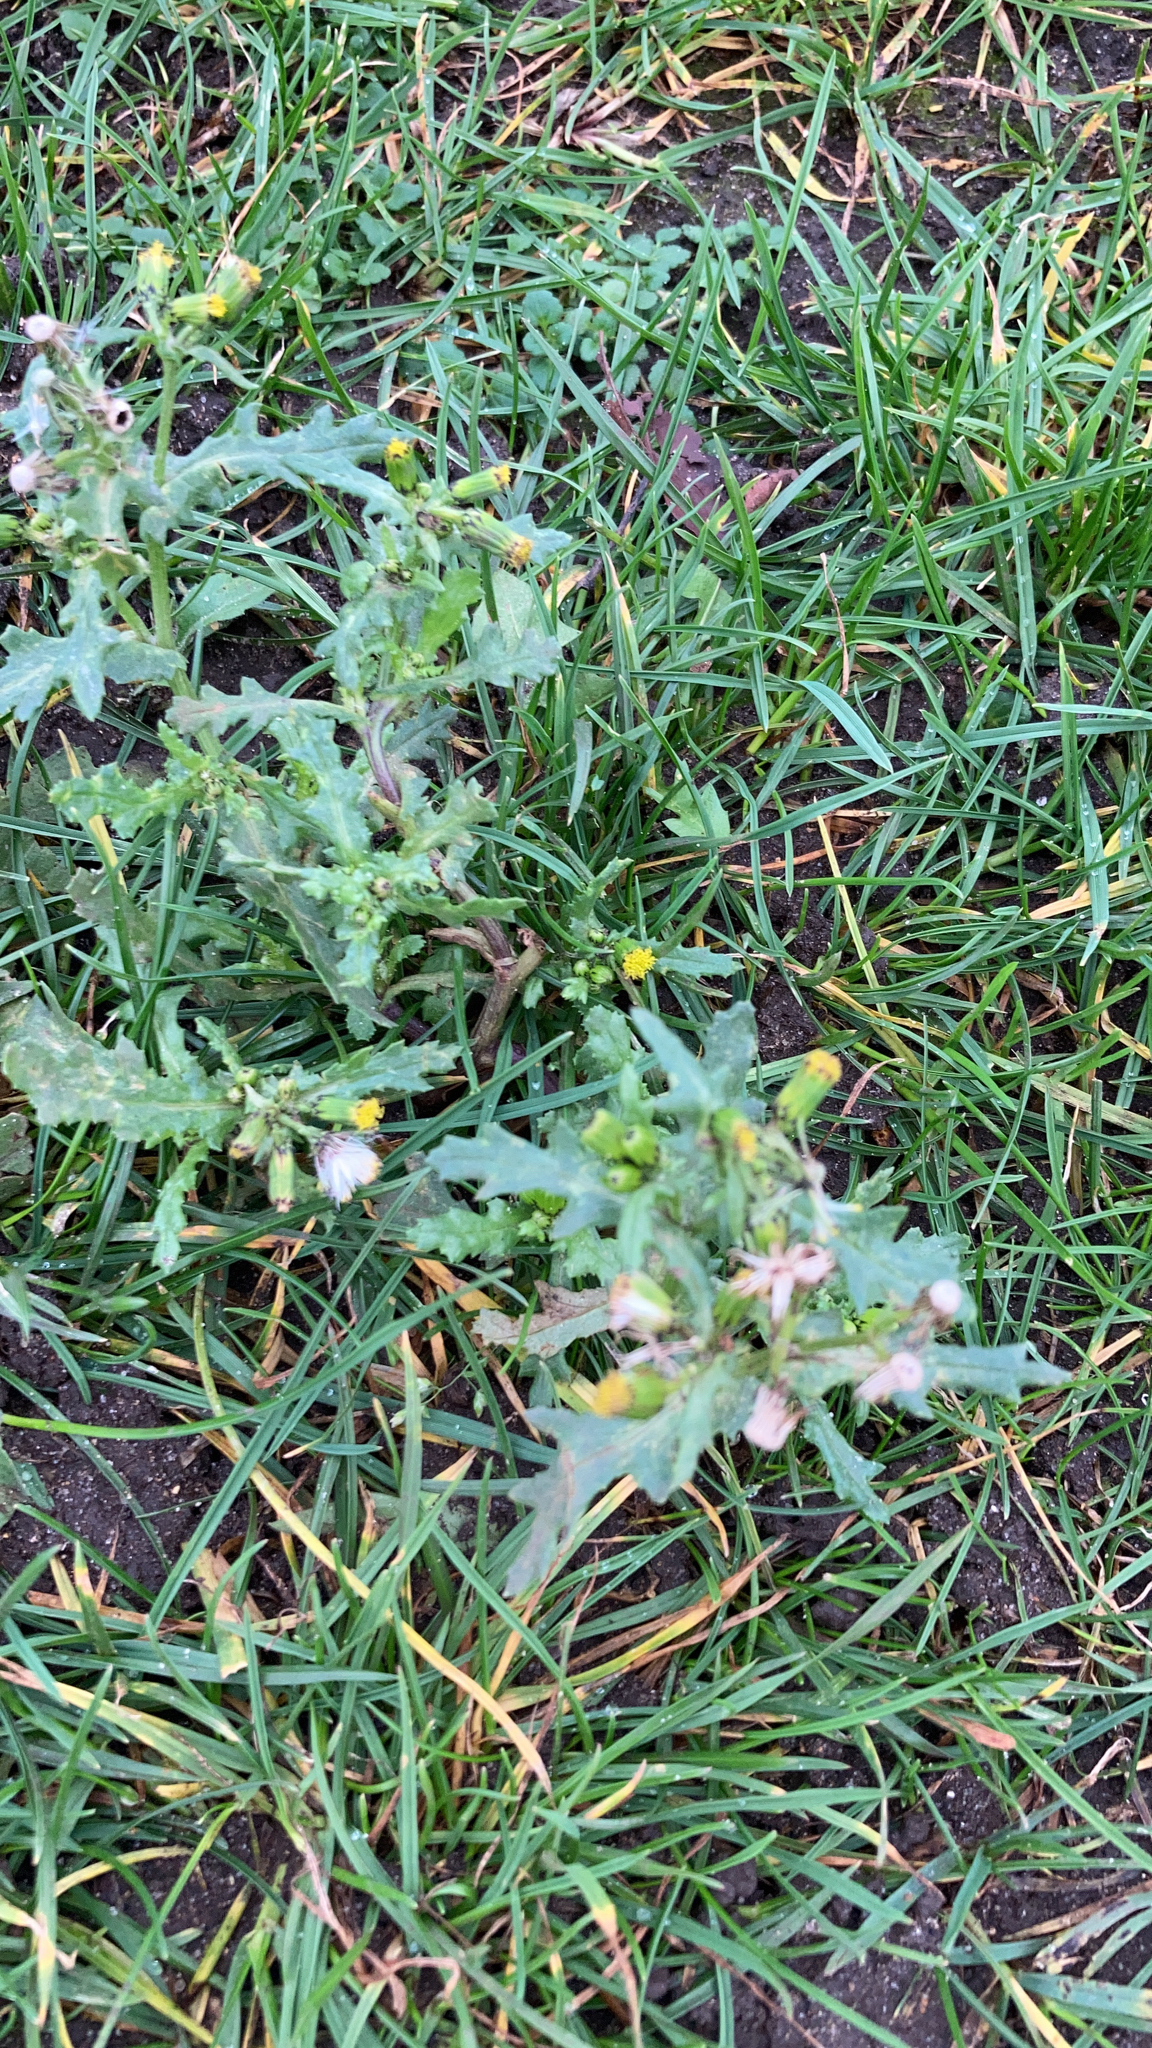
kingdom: Plantae
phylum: Tracheophyta
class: Magnoliopsida
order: Asterales
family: Asteraceae
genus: Senecio
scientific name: Senecio vulgaris
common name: Old-man-in-the-spring
